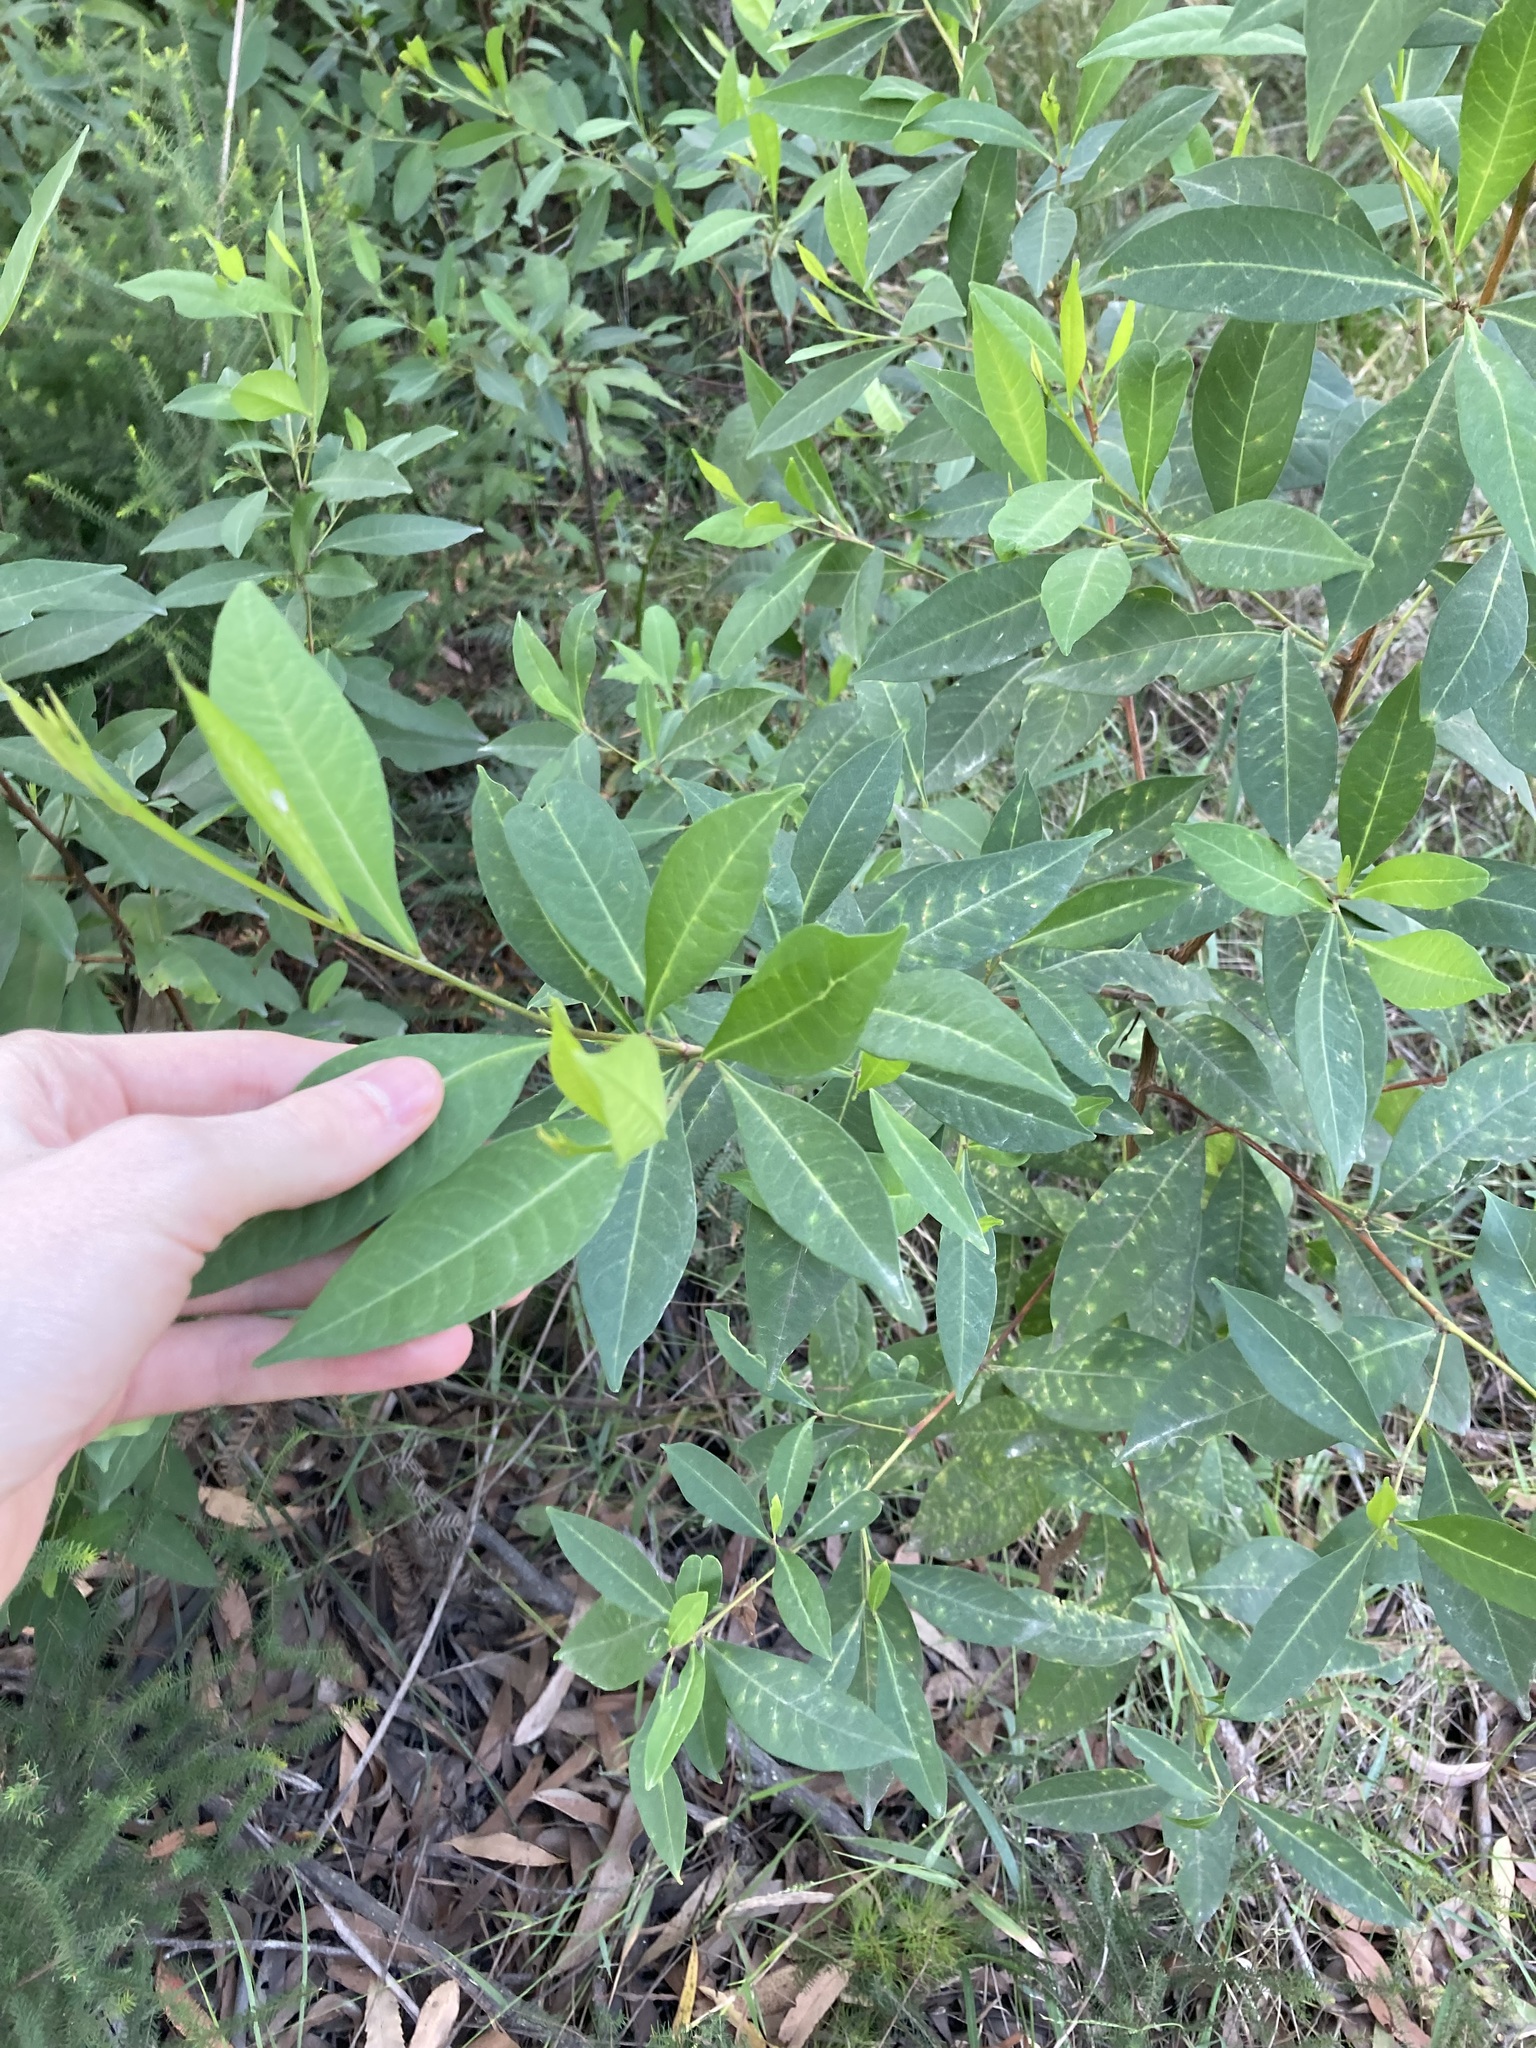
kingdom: Plantae
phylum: Tracheophyta
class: Magnoliopsida
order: Sapindales
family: Sapindaceae
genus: Dodonaea
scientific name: Dodonaea triquetra
